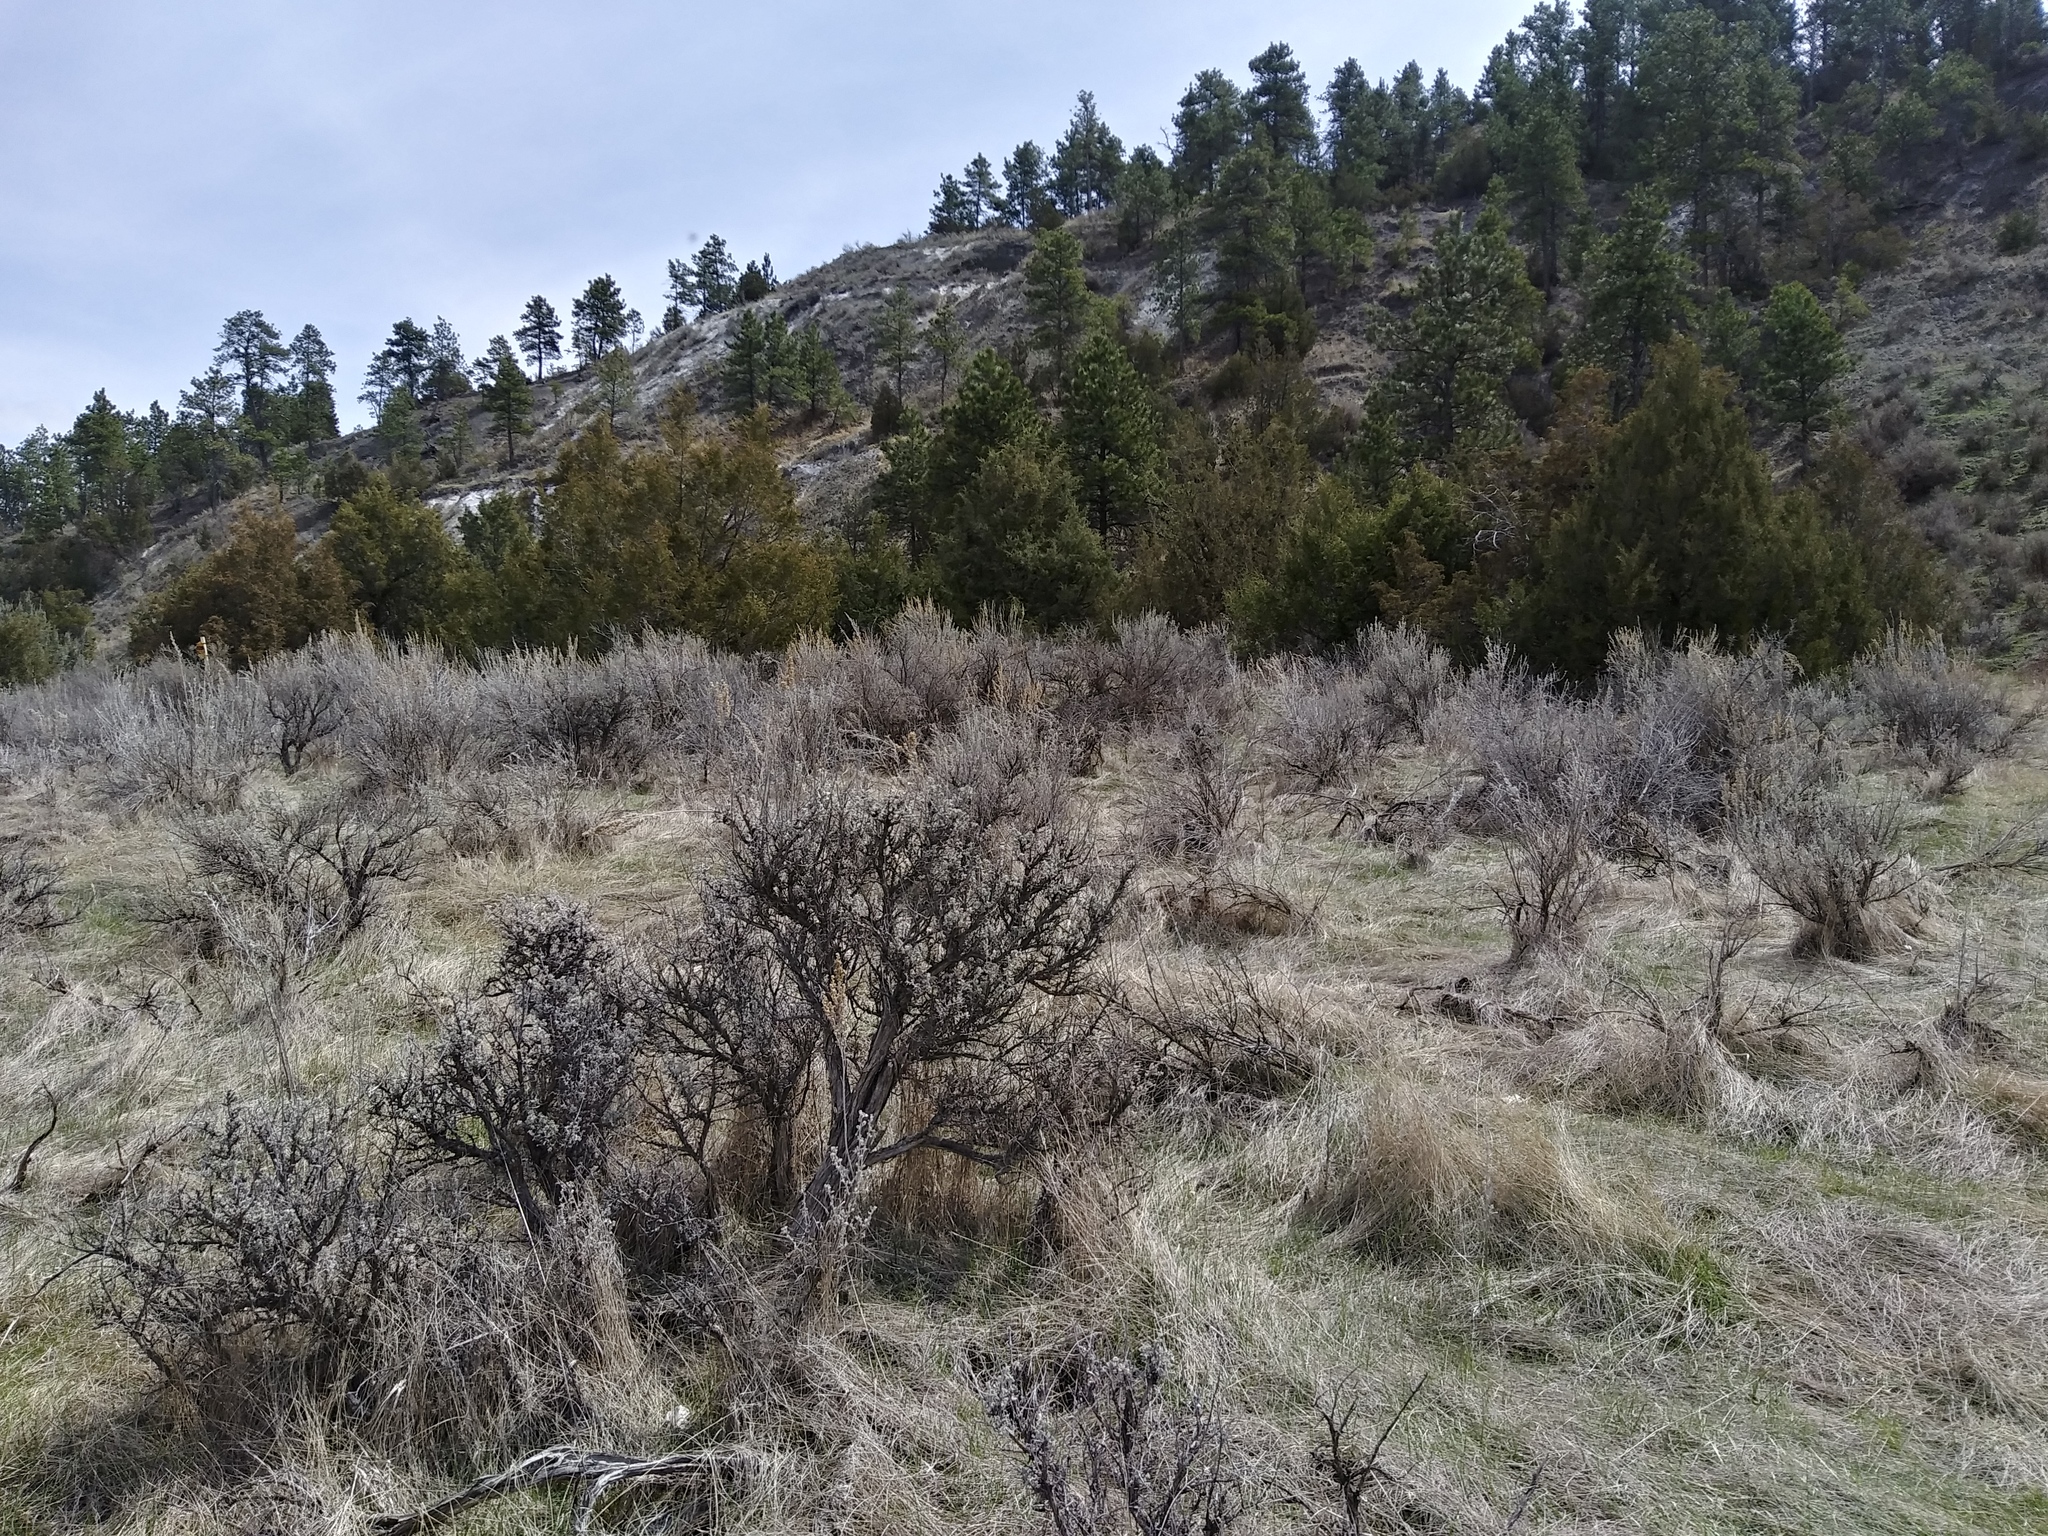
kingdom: Plantae
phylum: Tracheophyta
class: Magnoliopsida
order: Asterales
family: Asteraceae
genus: Artemisia
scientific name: Artemisia tridentata
